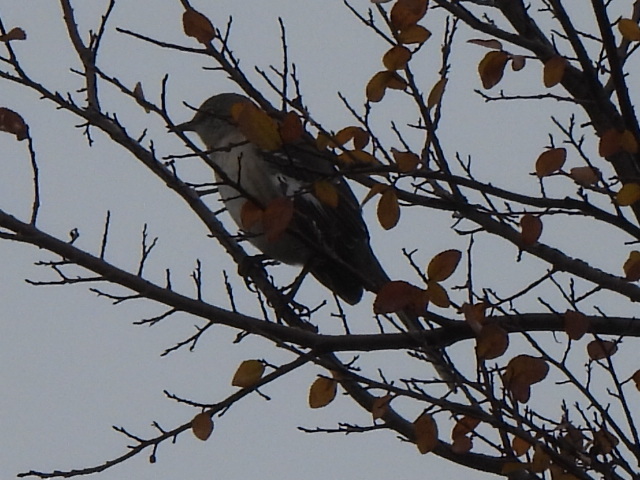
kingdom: Animalia
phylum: Chordata
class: Aves
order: Passeriformes
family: Mimidae
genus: Mimus
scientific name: Mimus polyglottos
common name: Northern mockingbird
